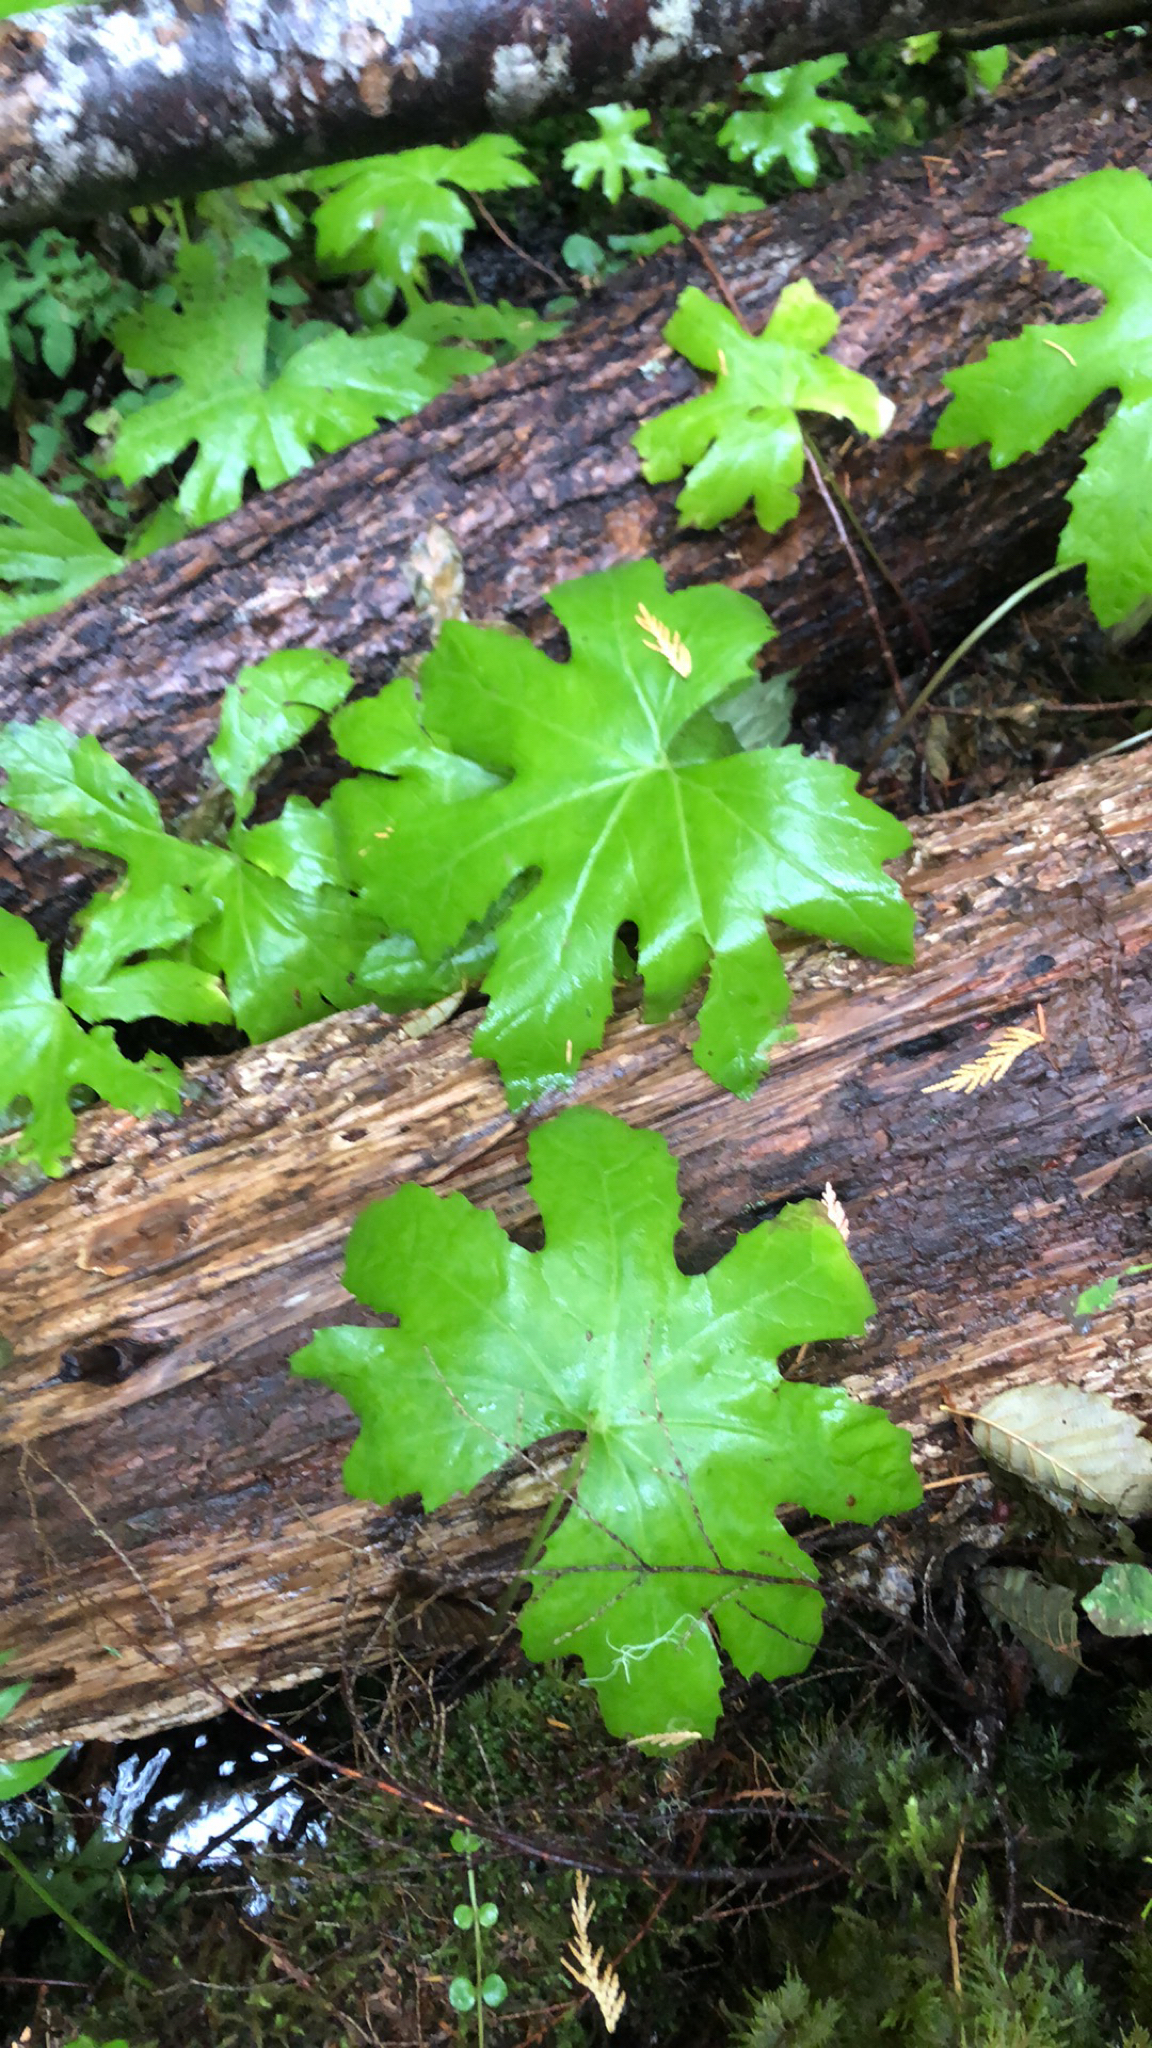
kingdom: Plantae
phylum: Tracheophyta
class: Magnoliopsida
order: Asterales
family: Asteraceae
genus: Petasites
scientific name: Petasites frigidus
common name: Arctic butterbur
